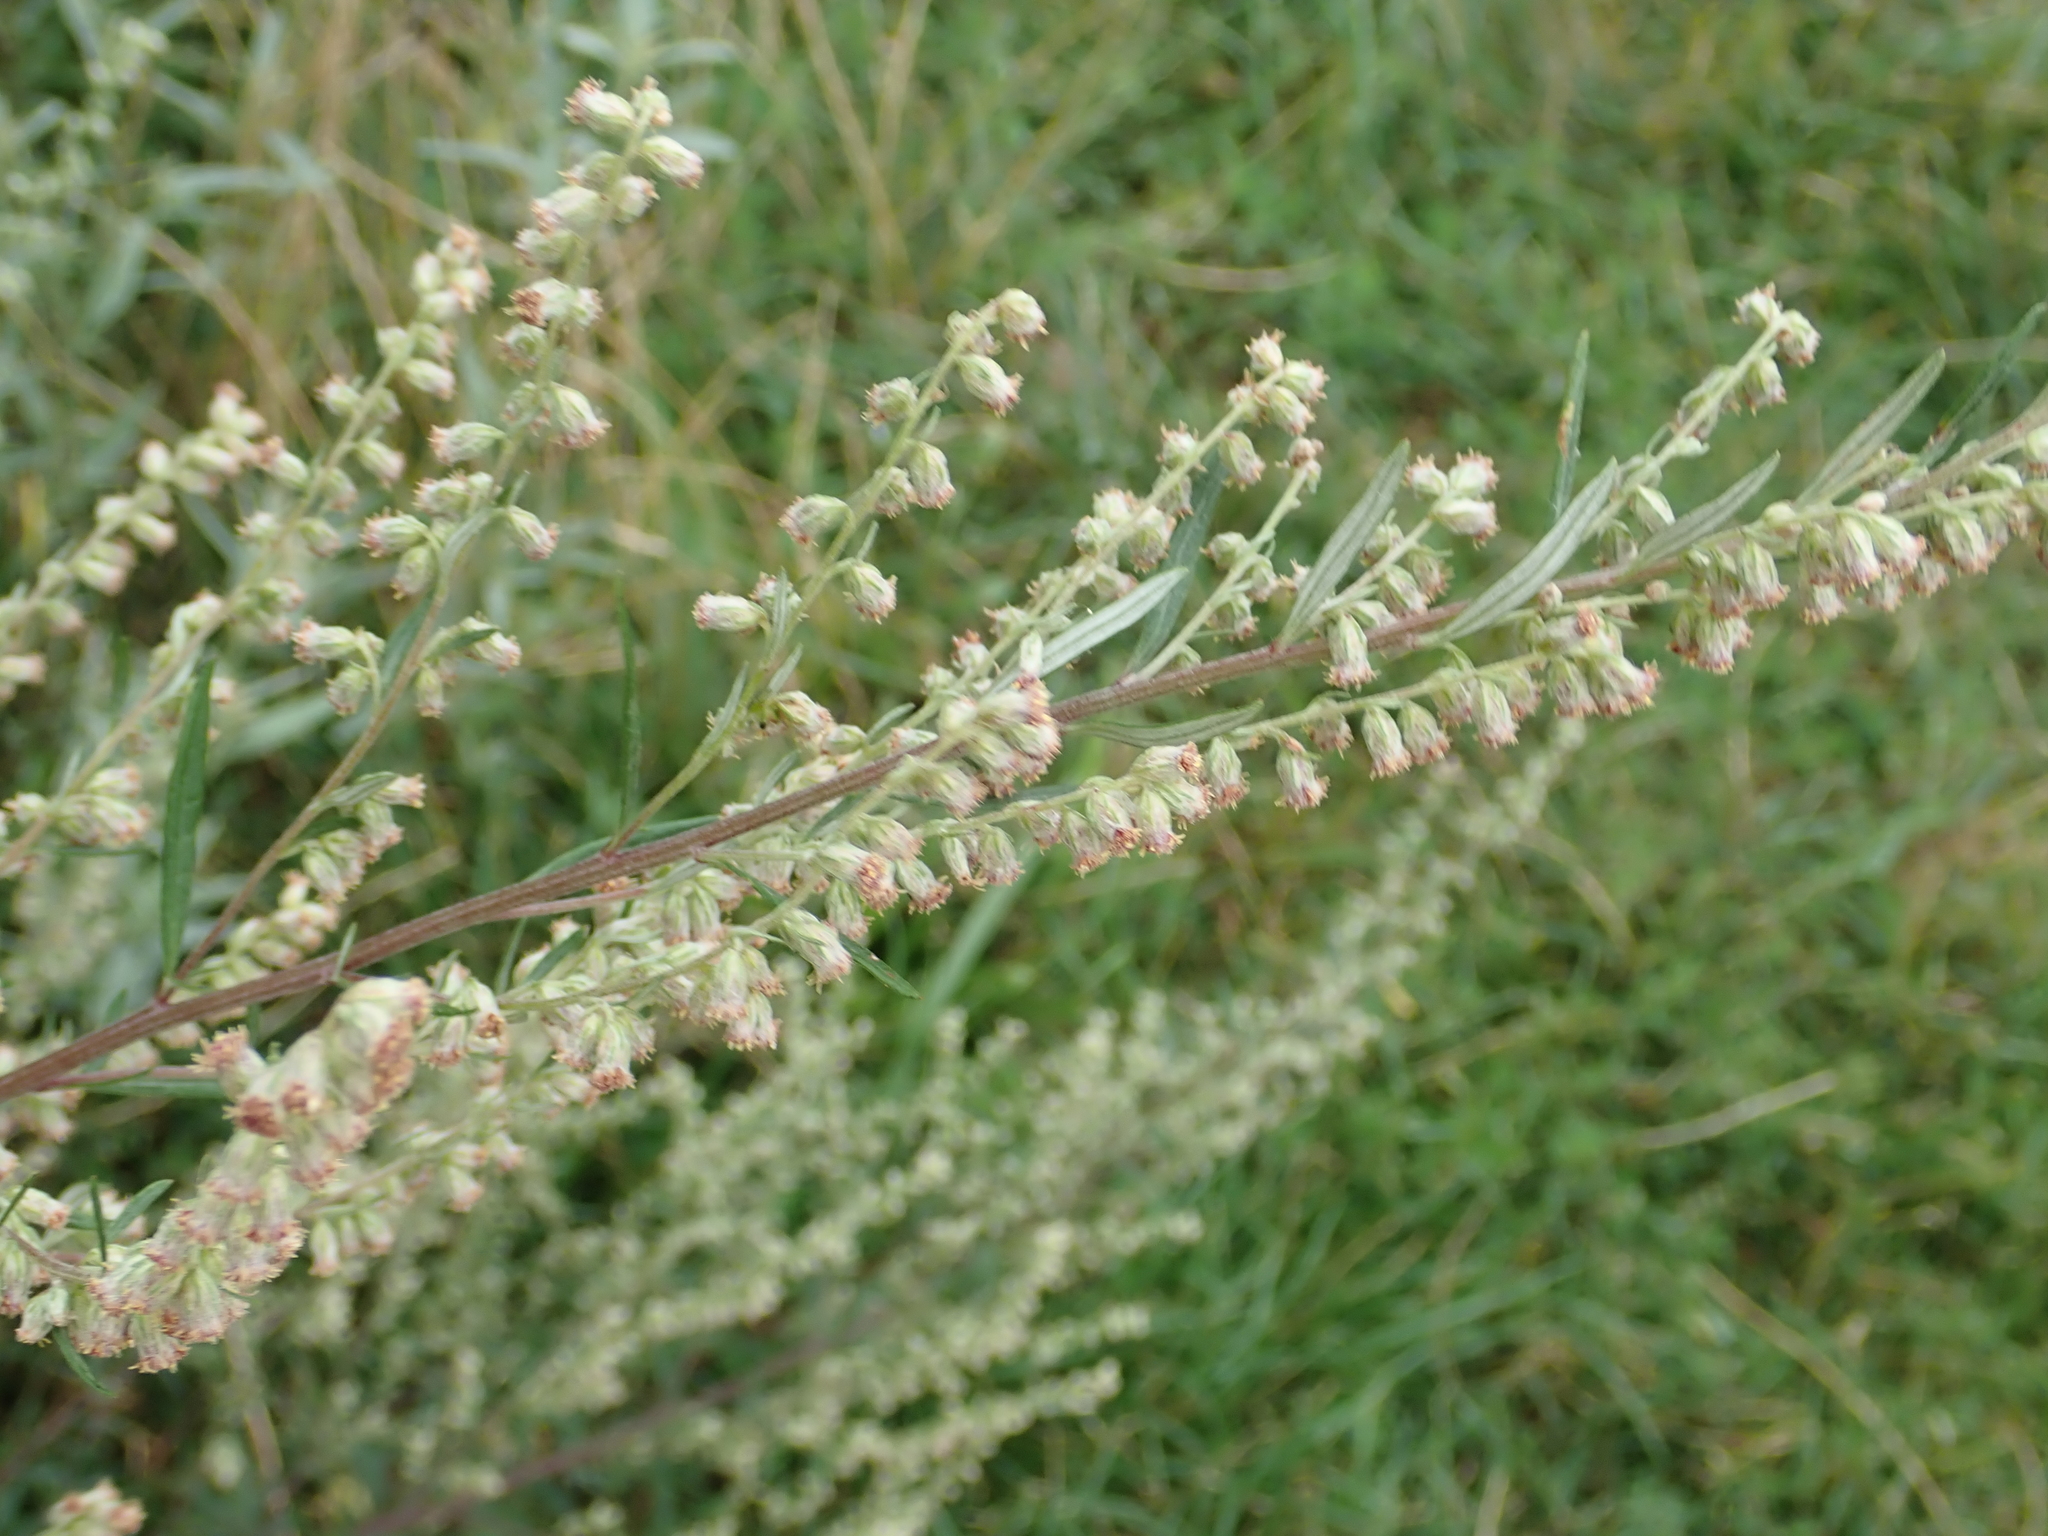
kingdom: Plantae
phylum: Tracheophyta
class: Magnoliopsida
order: Asterales
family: Asteraceae
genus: Artemisia
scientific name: Artemisia vulgaris
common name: Mugwort
